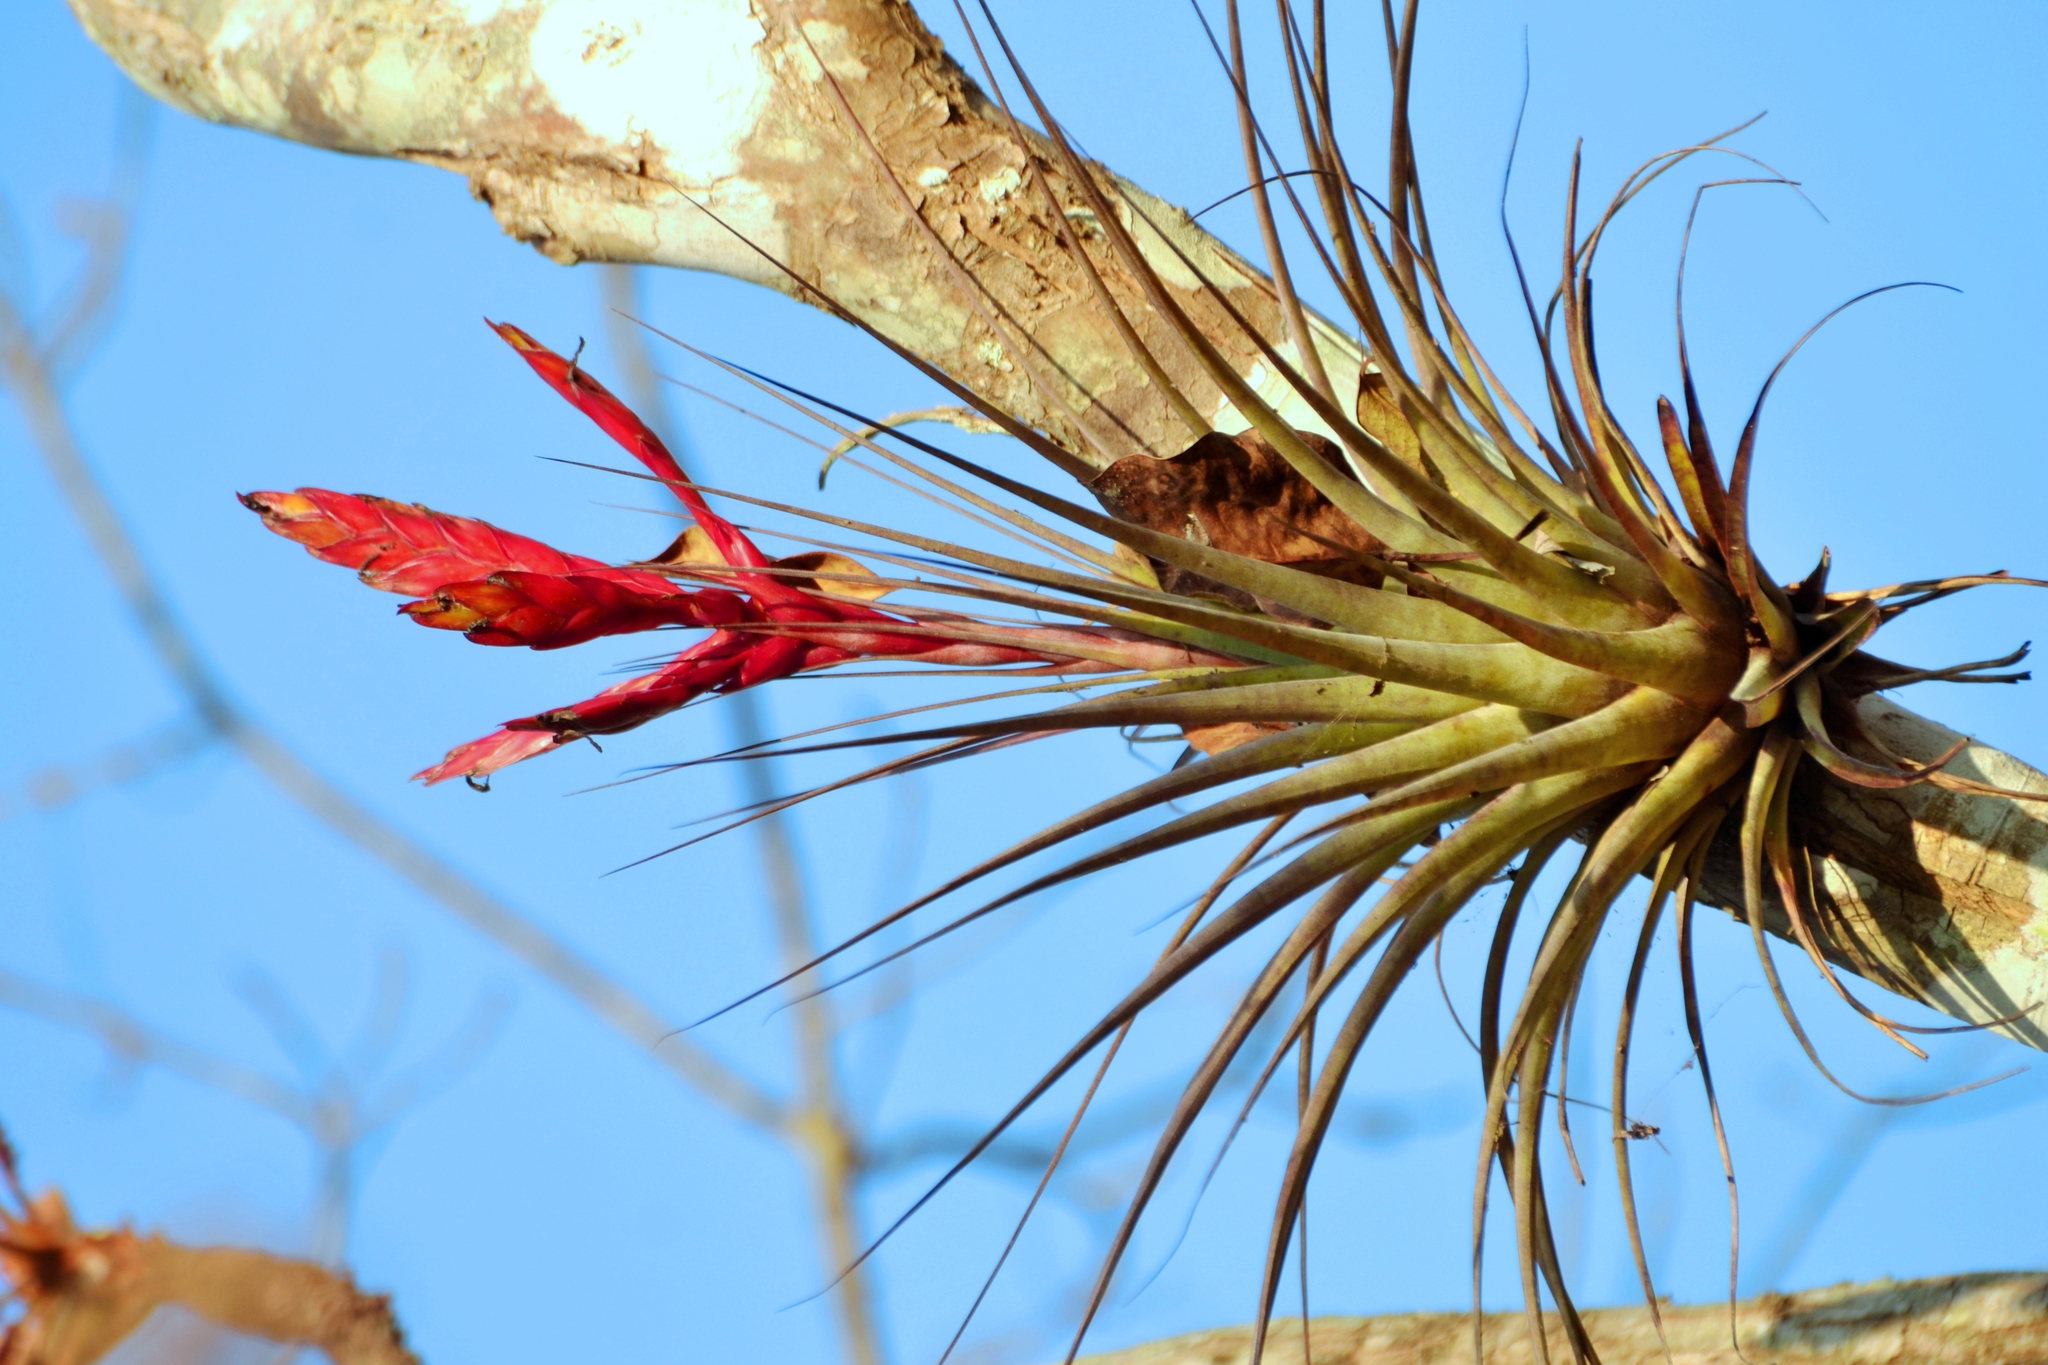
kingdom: Plantae
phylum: Tracheophyta
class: Liliopsida
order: Poales
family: Bromeliaceae
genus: Tillandsia
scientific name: Tillandsia fasciculata
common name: Giant airplant
